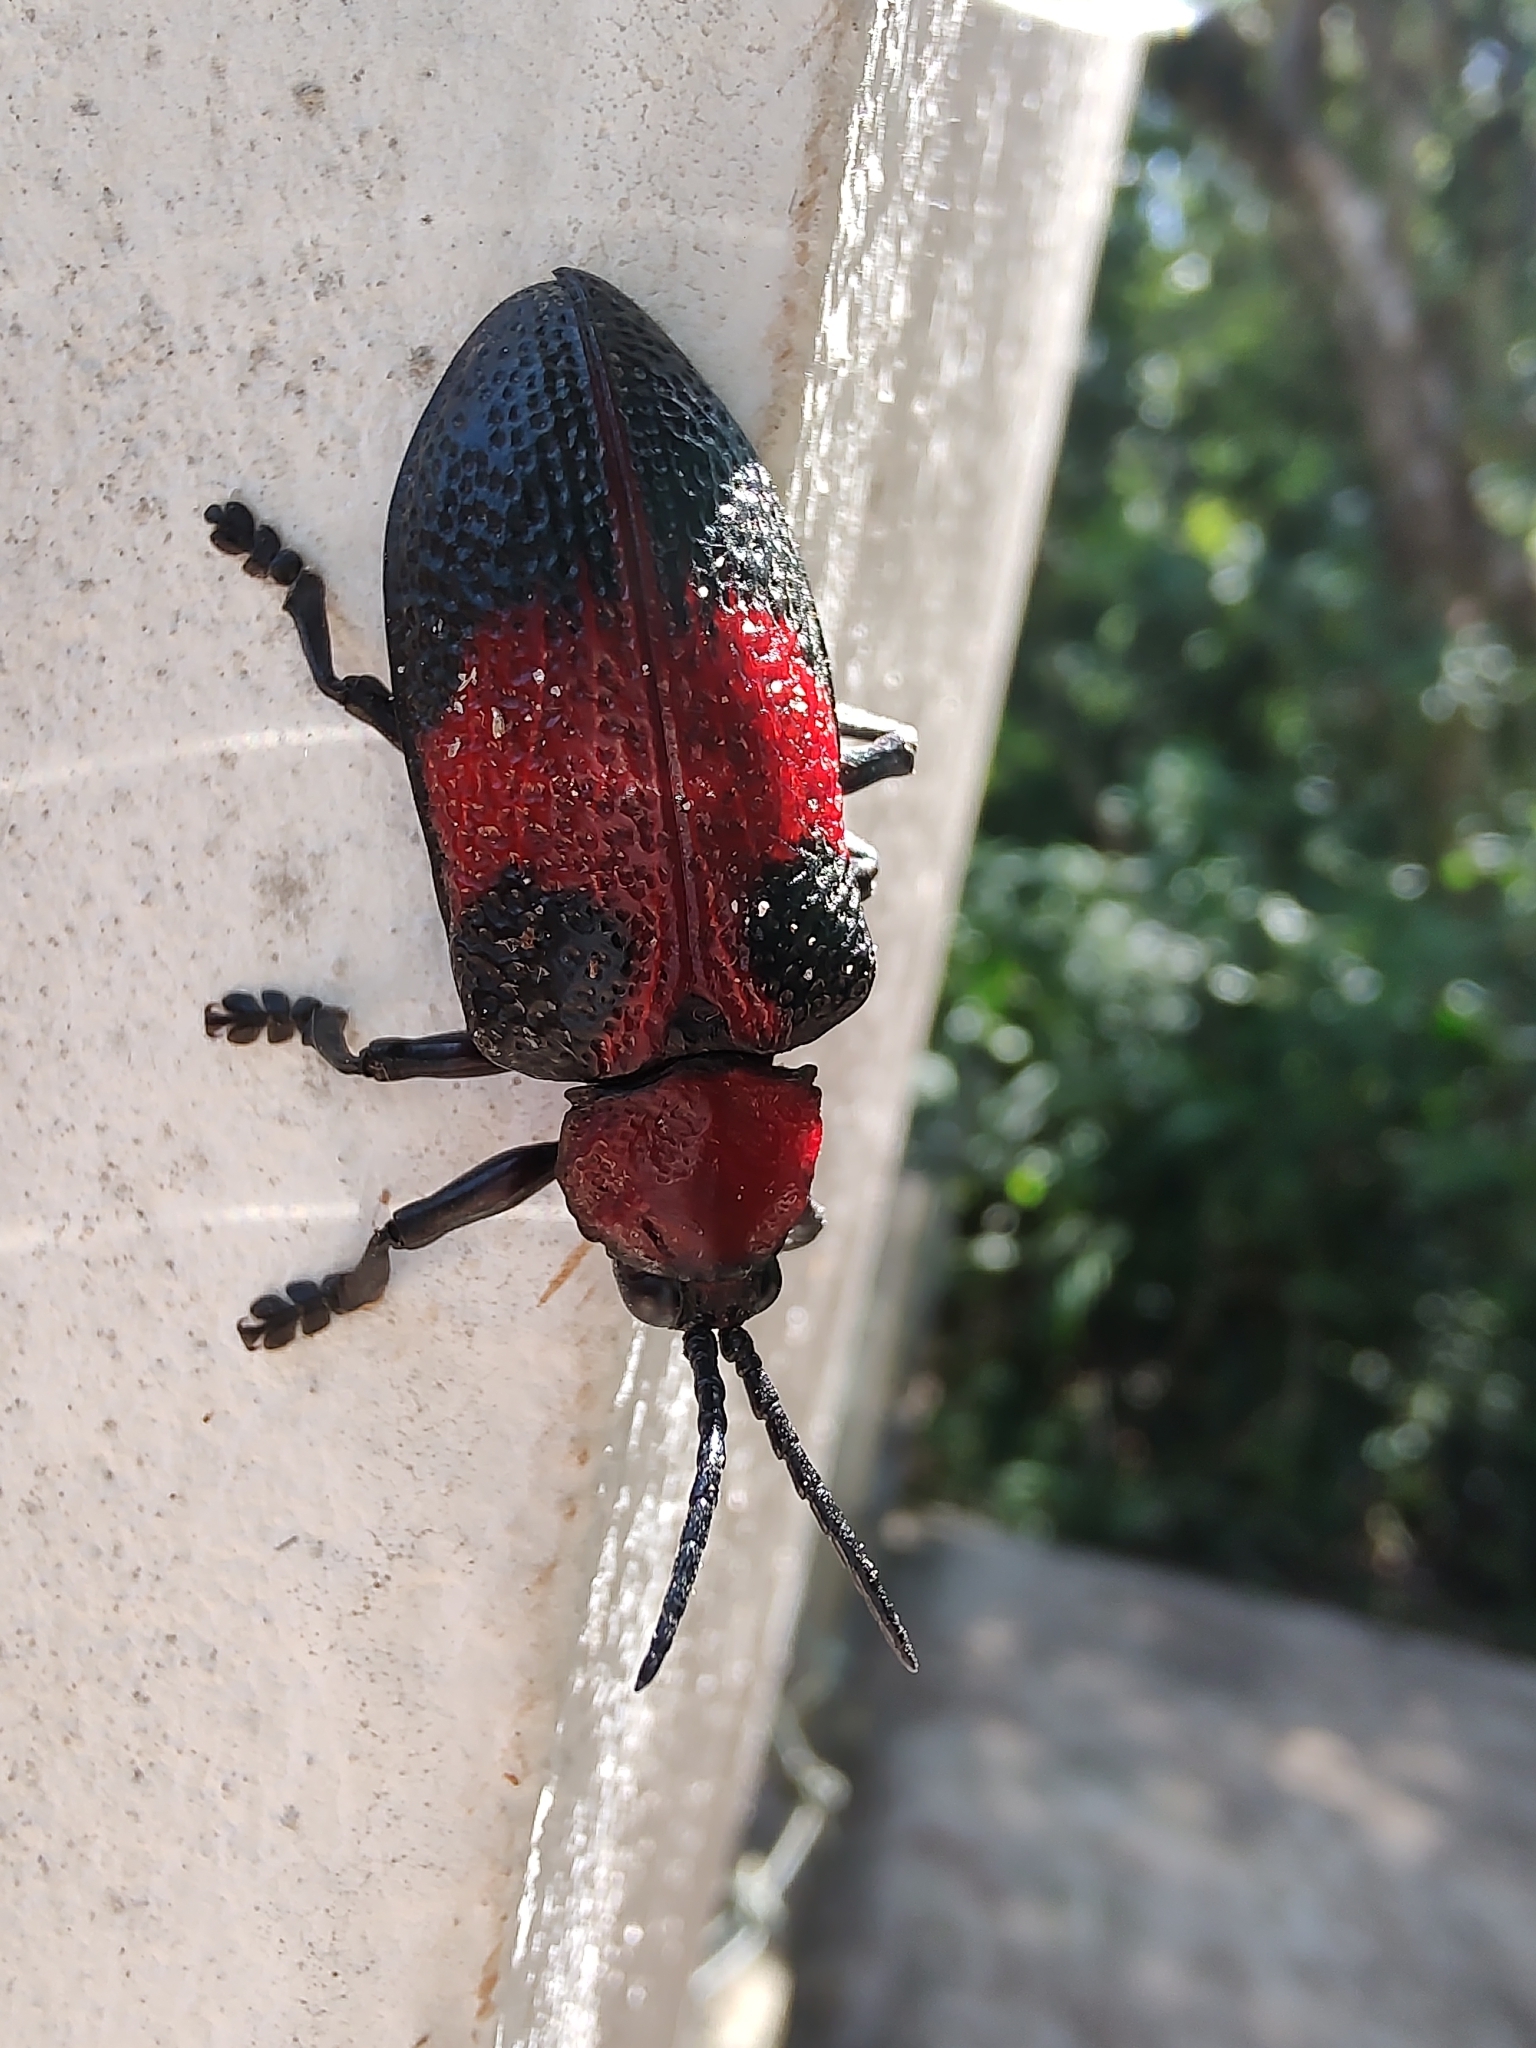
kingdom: Animalia
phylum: Arthropoda
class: Insecta
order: Coleoptera
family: Chrysomelidae
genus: Coraliomela
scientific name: Coraliomela aeneoplagiata
